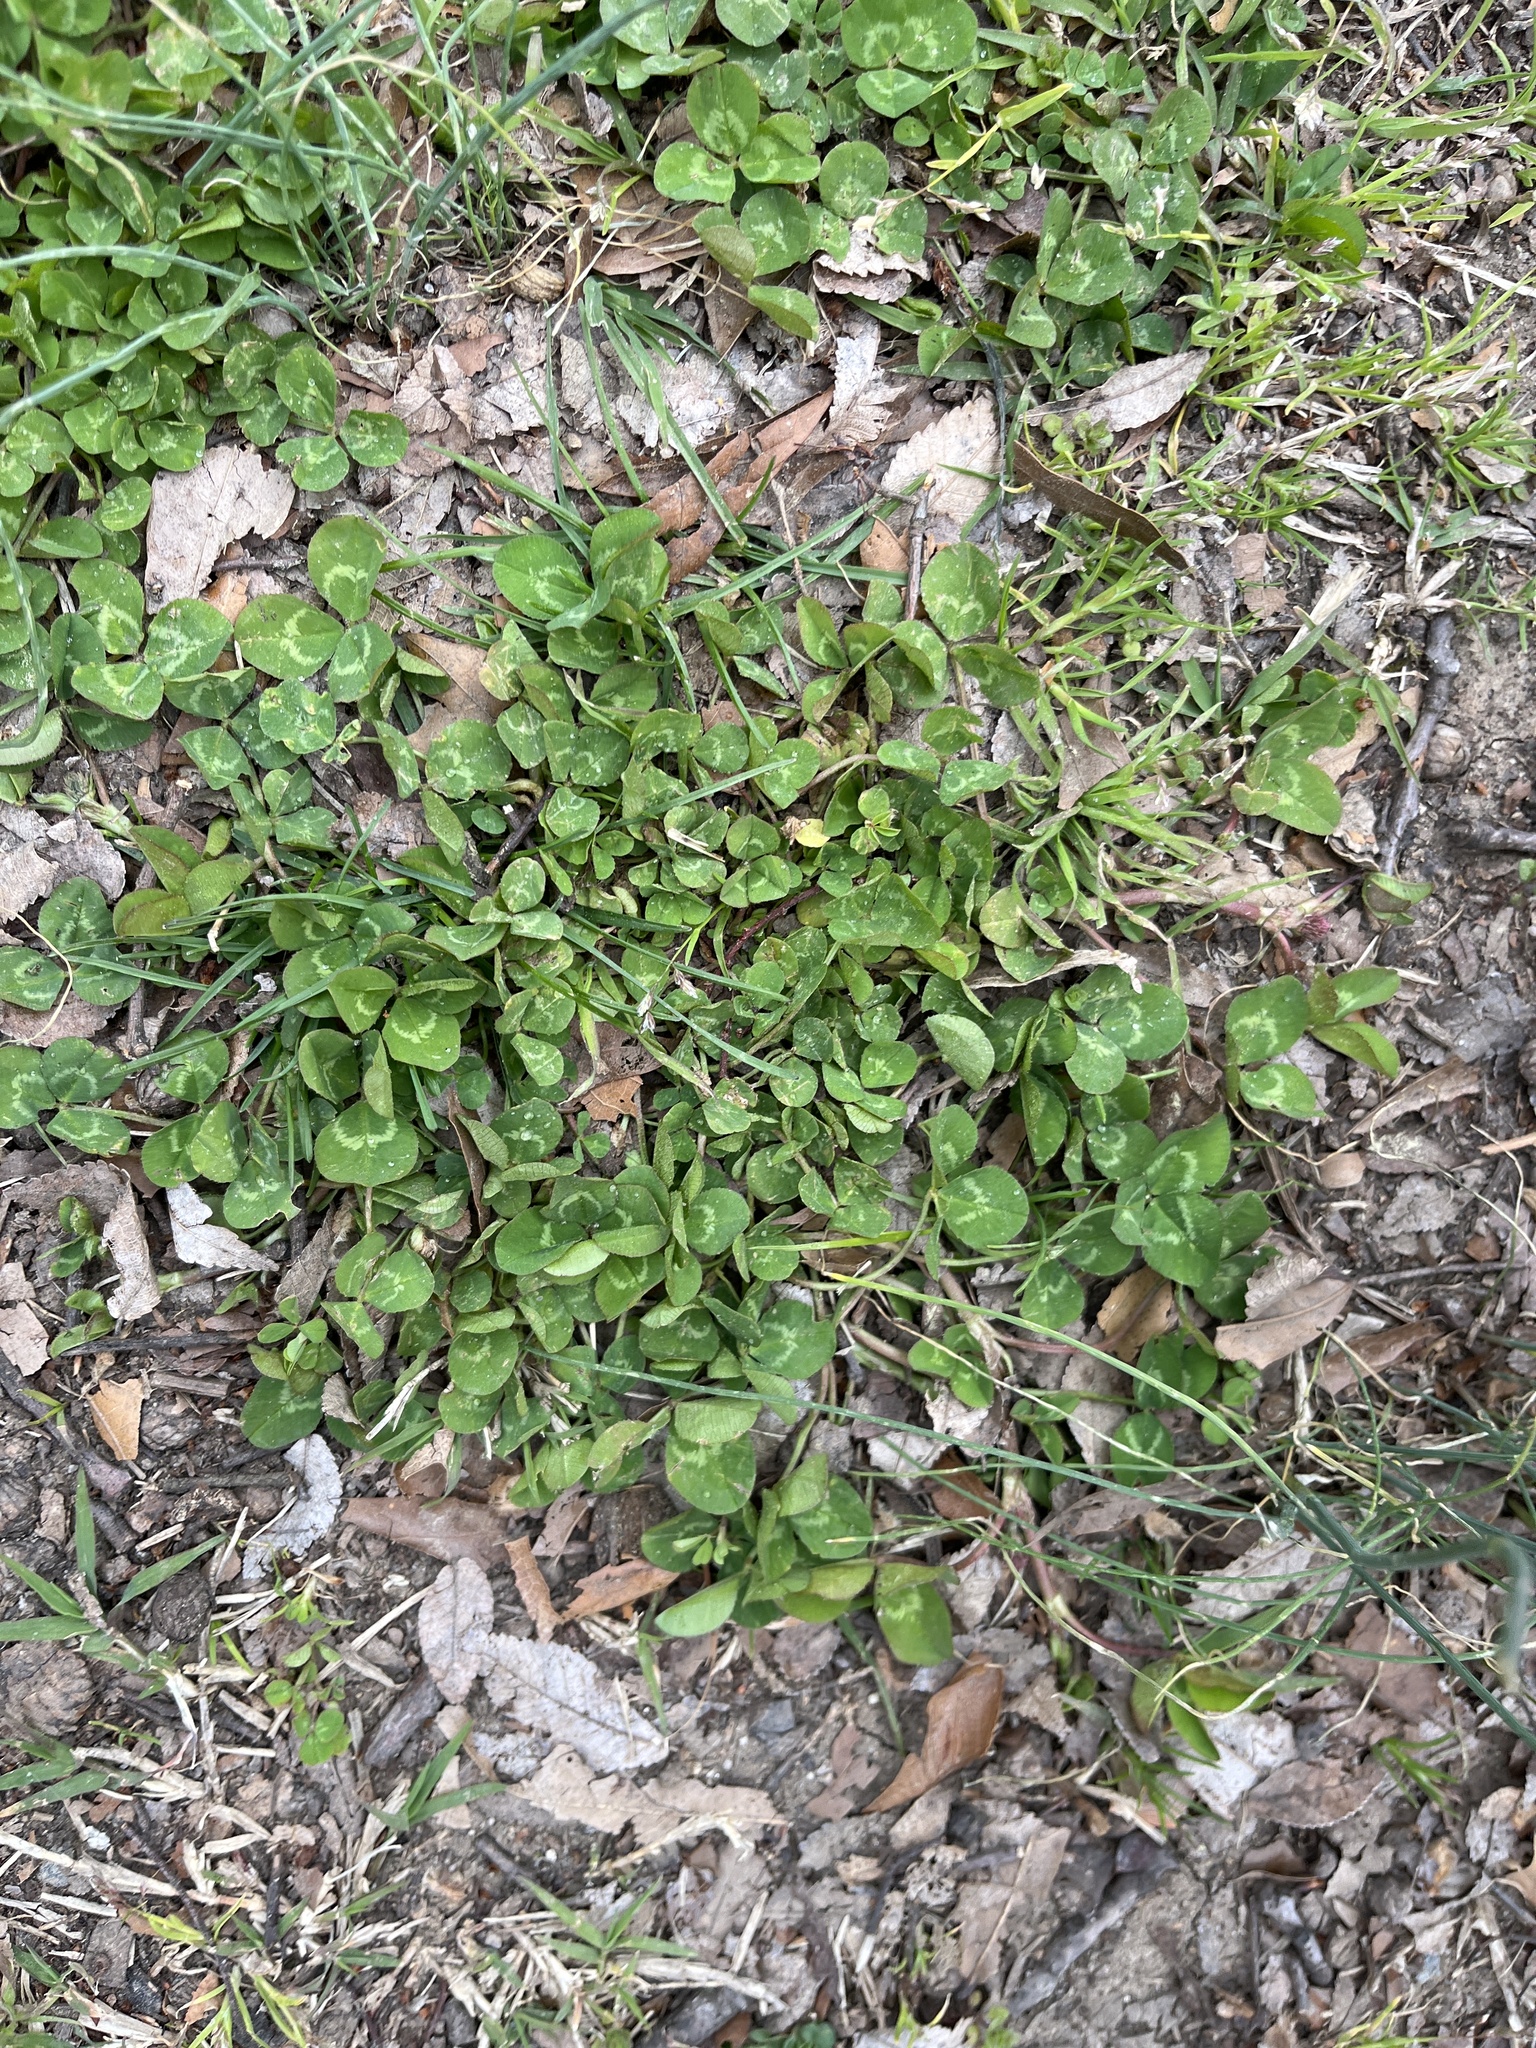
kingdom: Plantae
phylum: Tracheophyta
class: Magnoliopsida
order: Fabales
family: Fabaceae
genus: Trifolium
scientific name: Trifolium repens
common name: White clover
